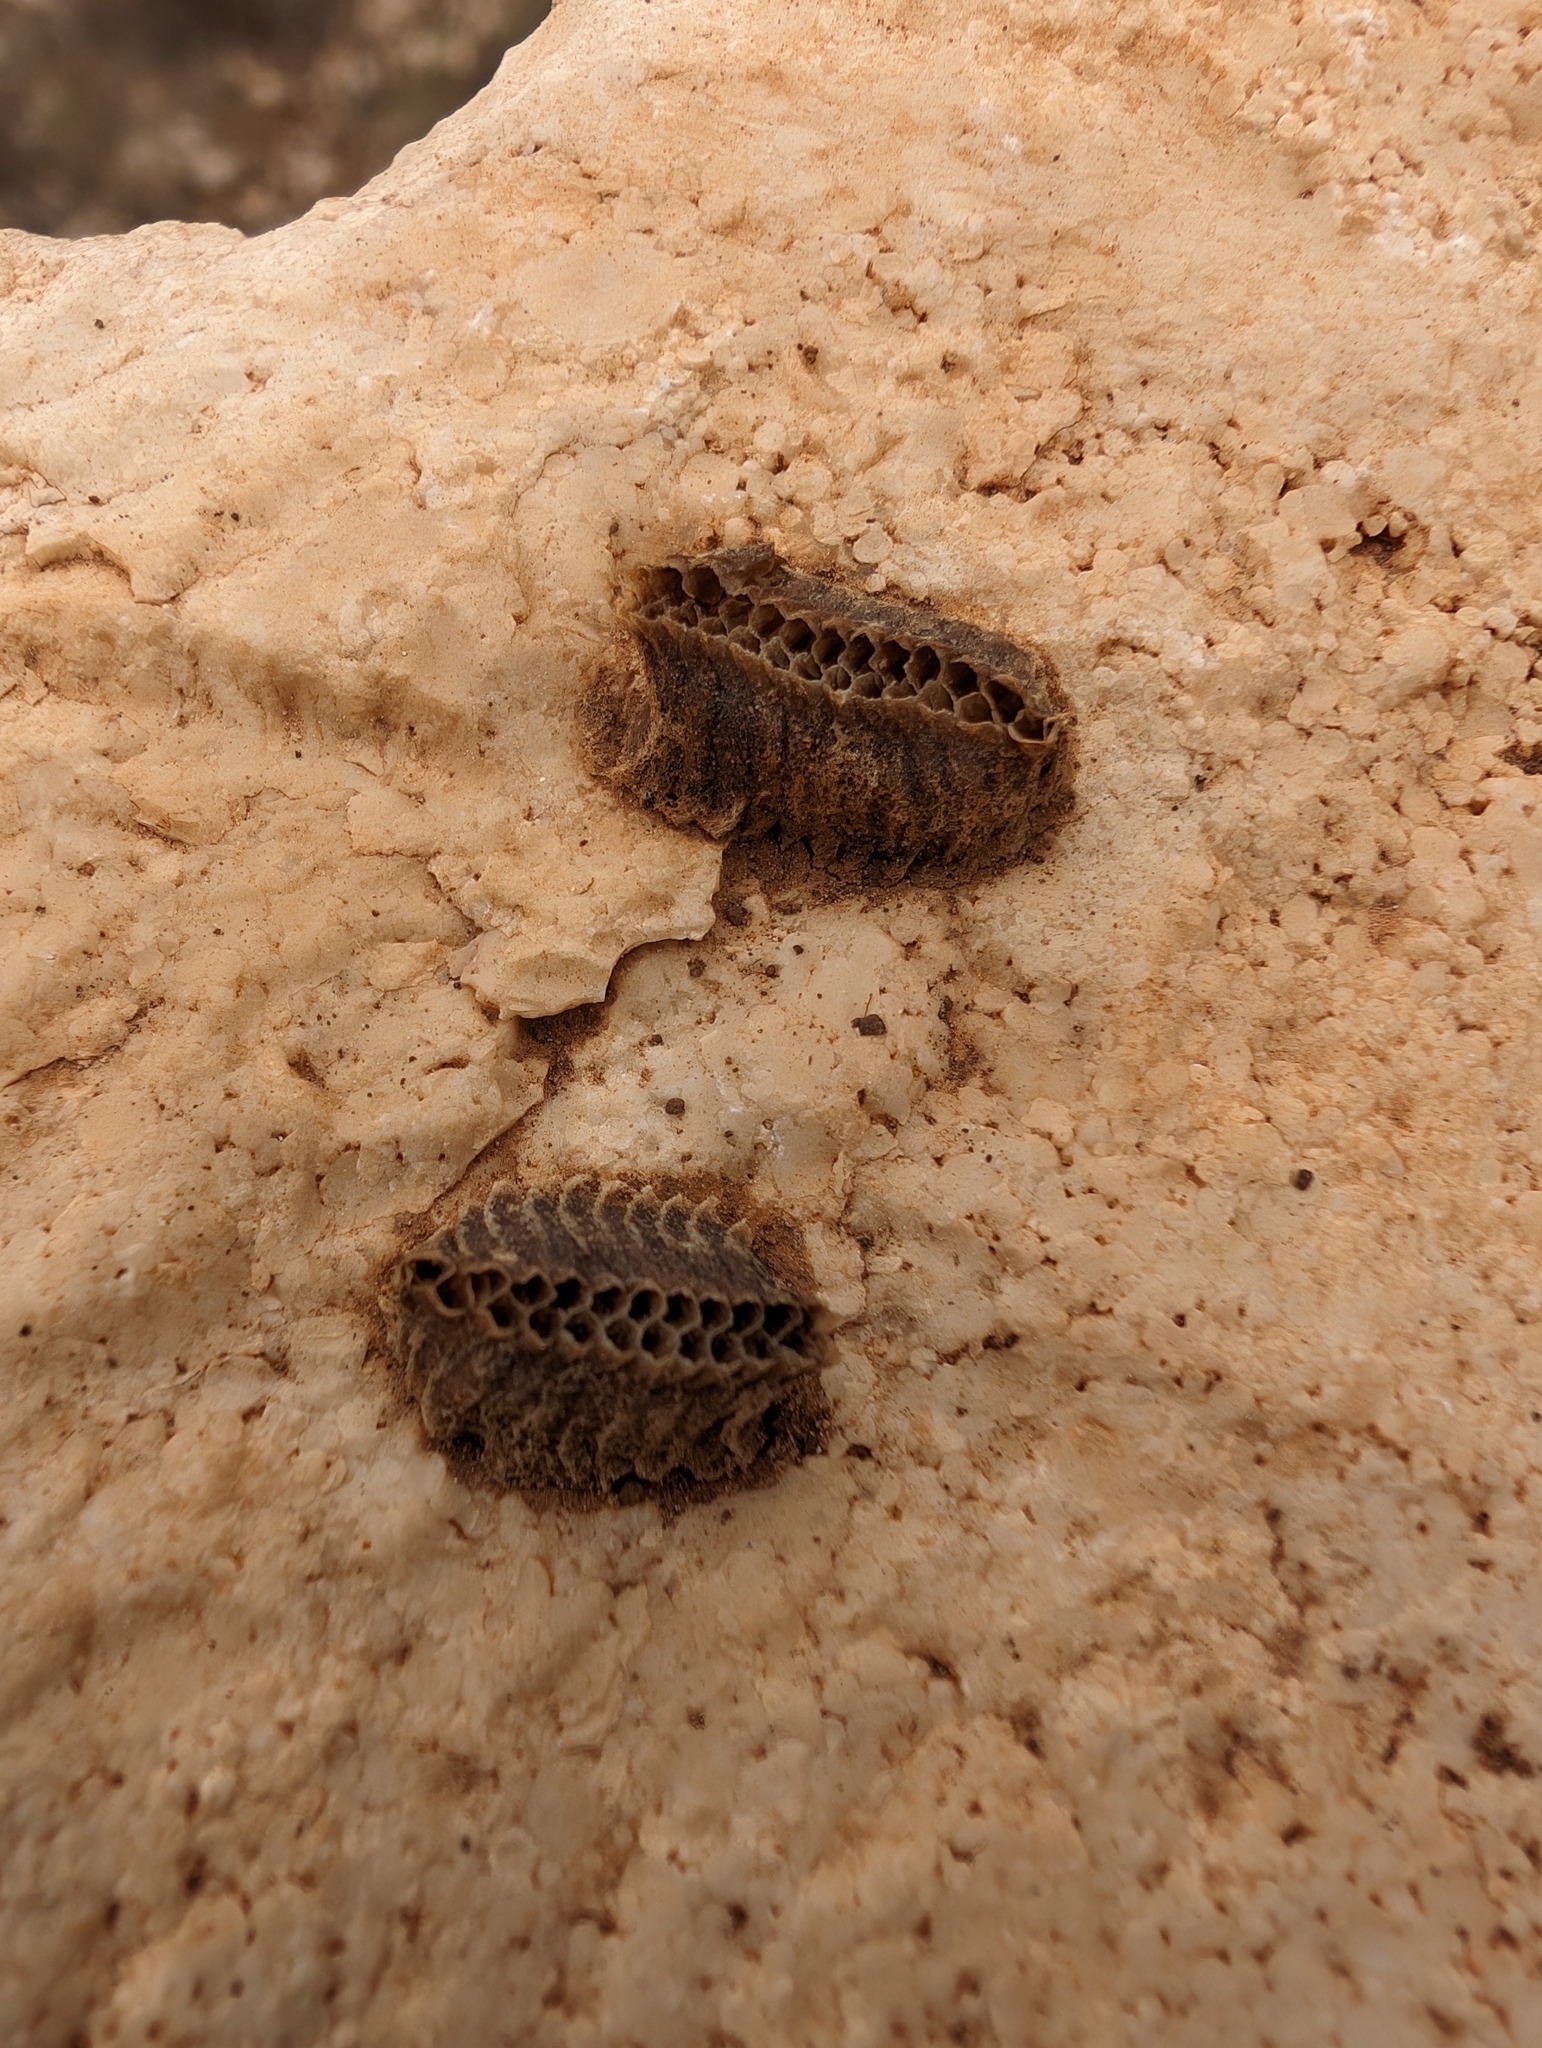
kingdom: Animalia
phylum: Arthropoda
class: Insecta
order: Mantodea
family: Eremiaphilidae
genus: Iris
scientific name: Iris oratoria
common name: Mediterranean mantis
